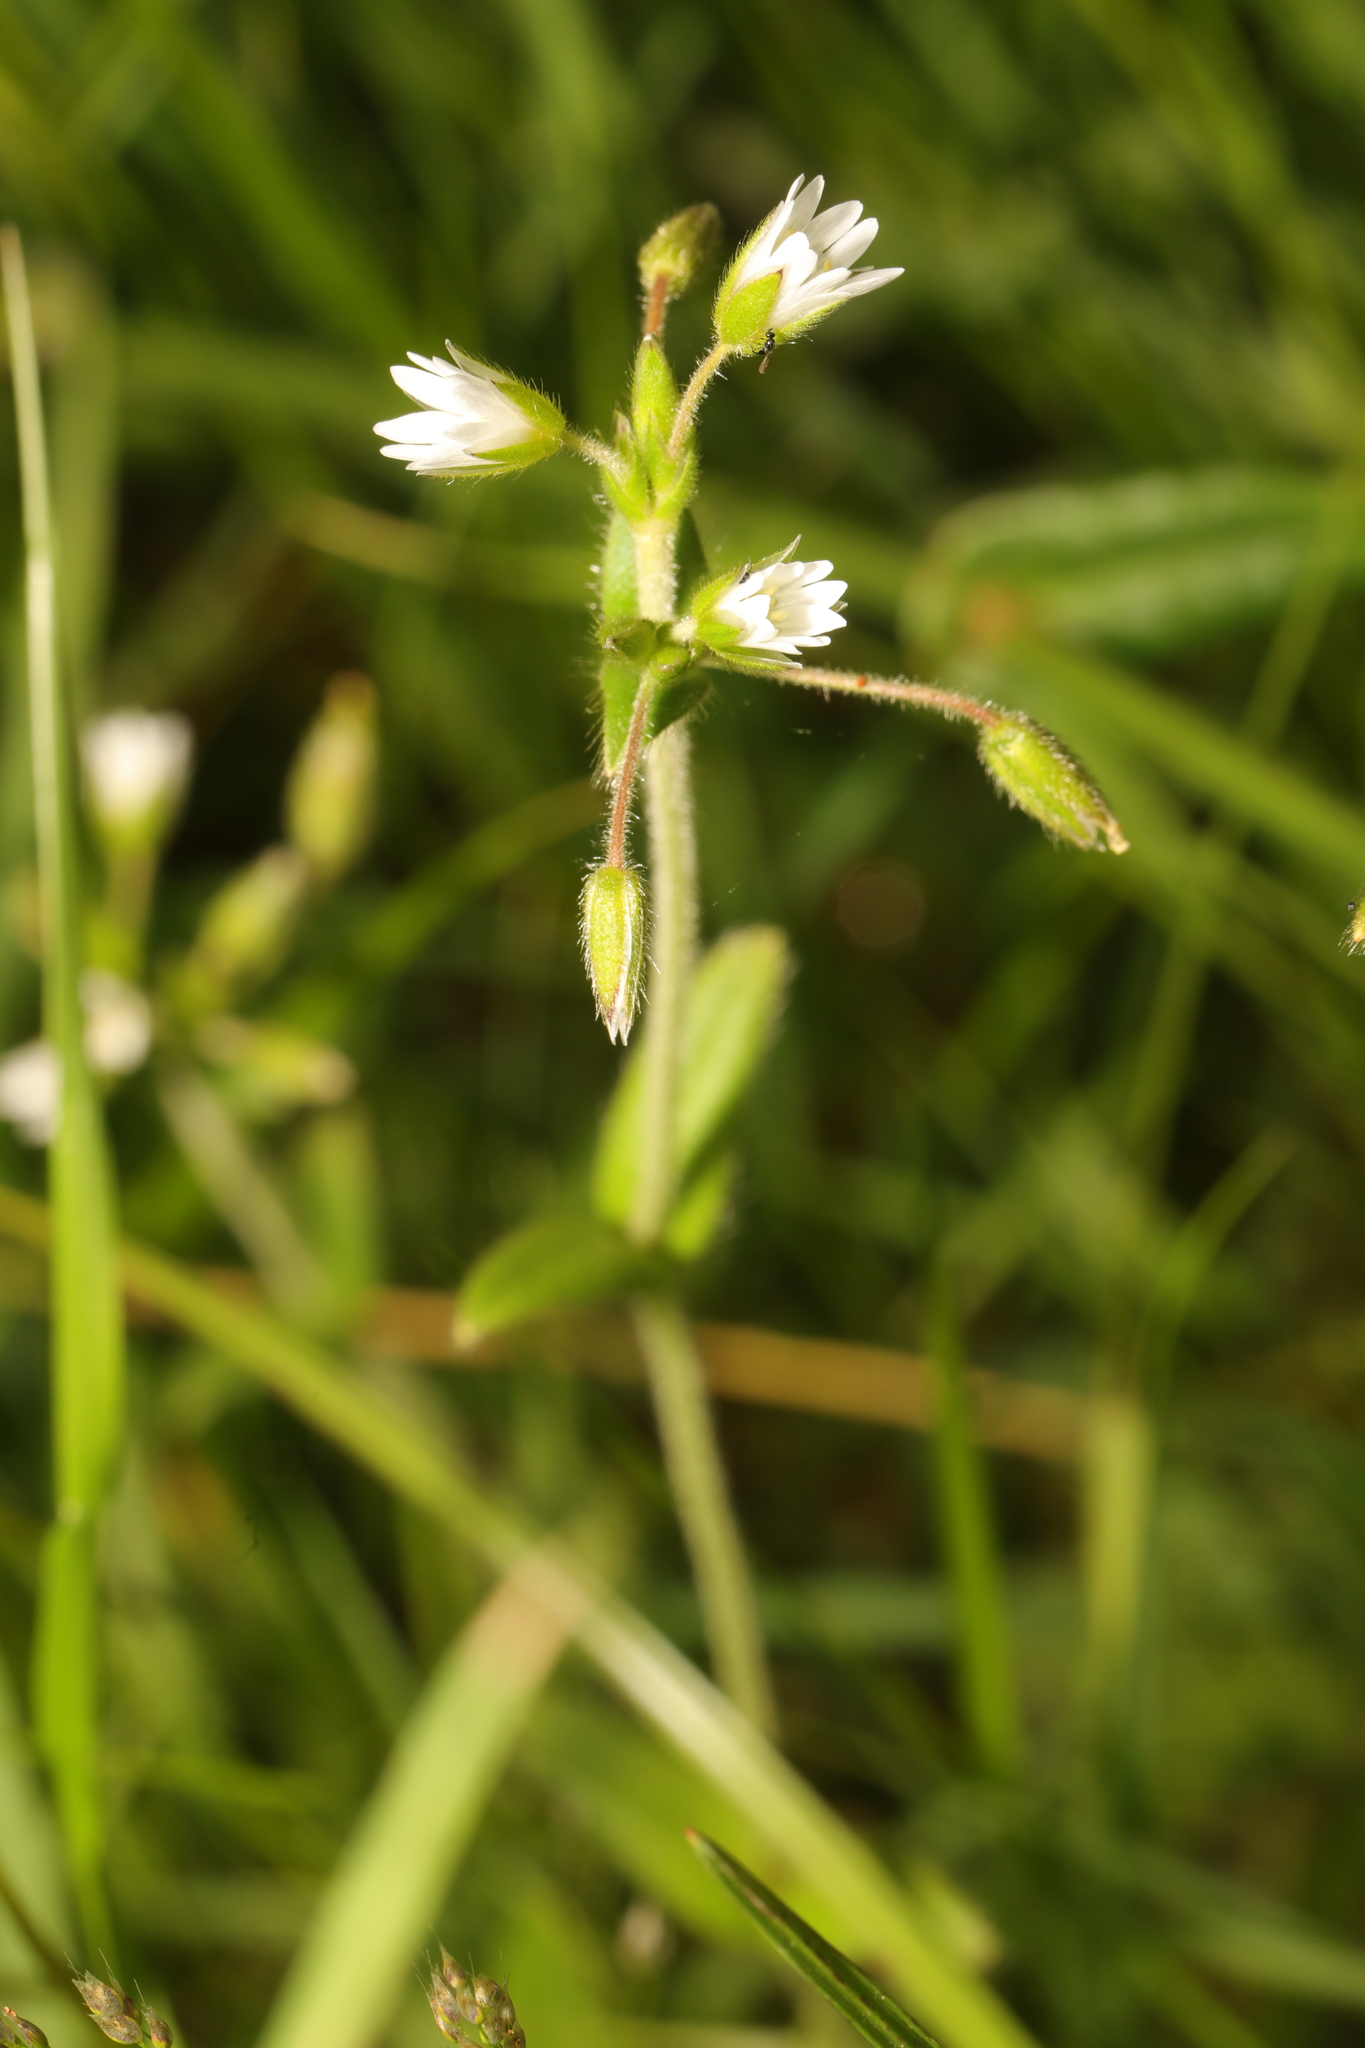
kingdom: Plantae
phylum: Tracheophyta
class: Magnoliopsida
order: Caryophyllales
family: Caryophyllaceae
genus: Cerastium
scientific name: Cerastium fontanum
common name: Common mouse-ear
